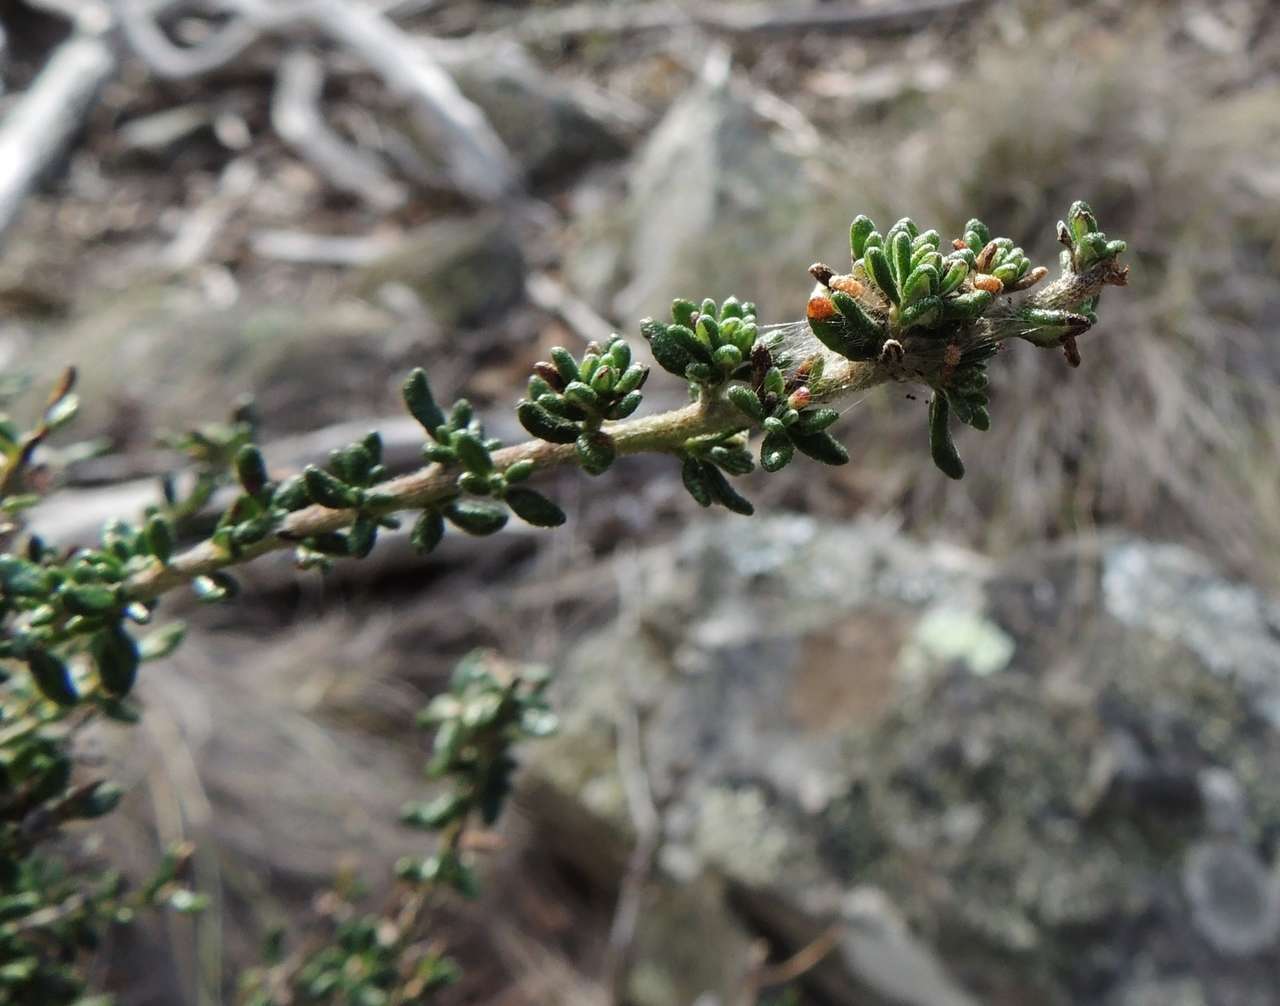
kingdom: Plantae
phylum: Tracheophyta
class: Magnoliopsida
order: Asterales
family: Asteraceae
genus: Olearia
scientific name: Olearia minor
